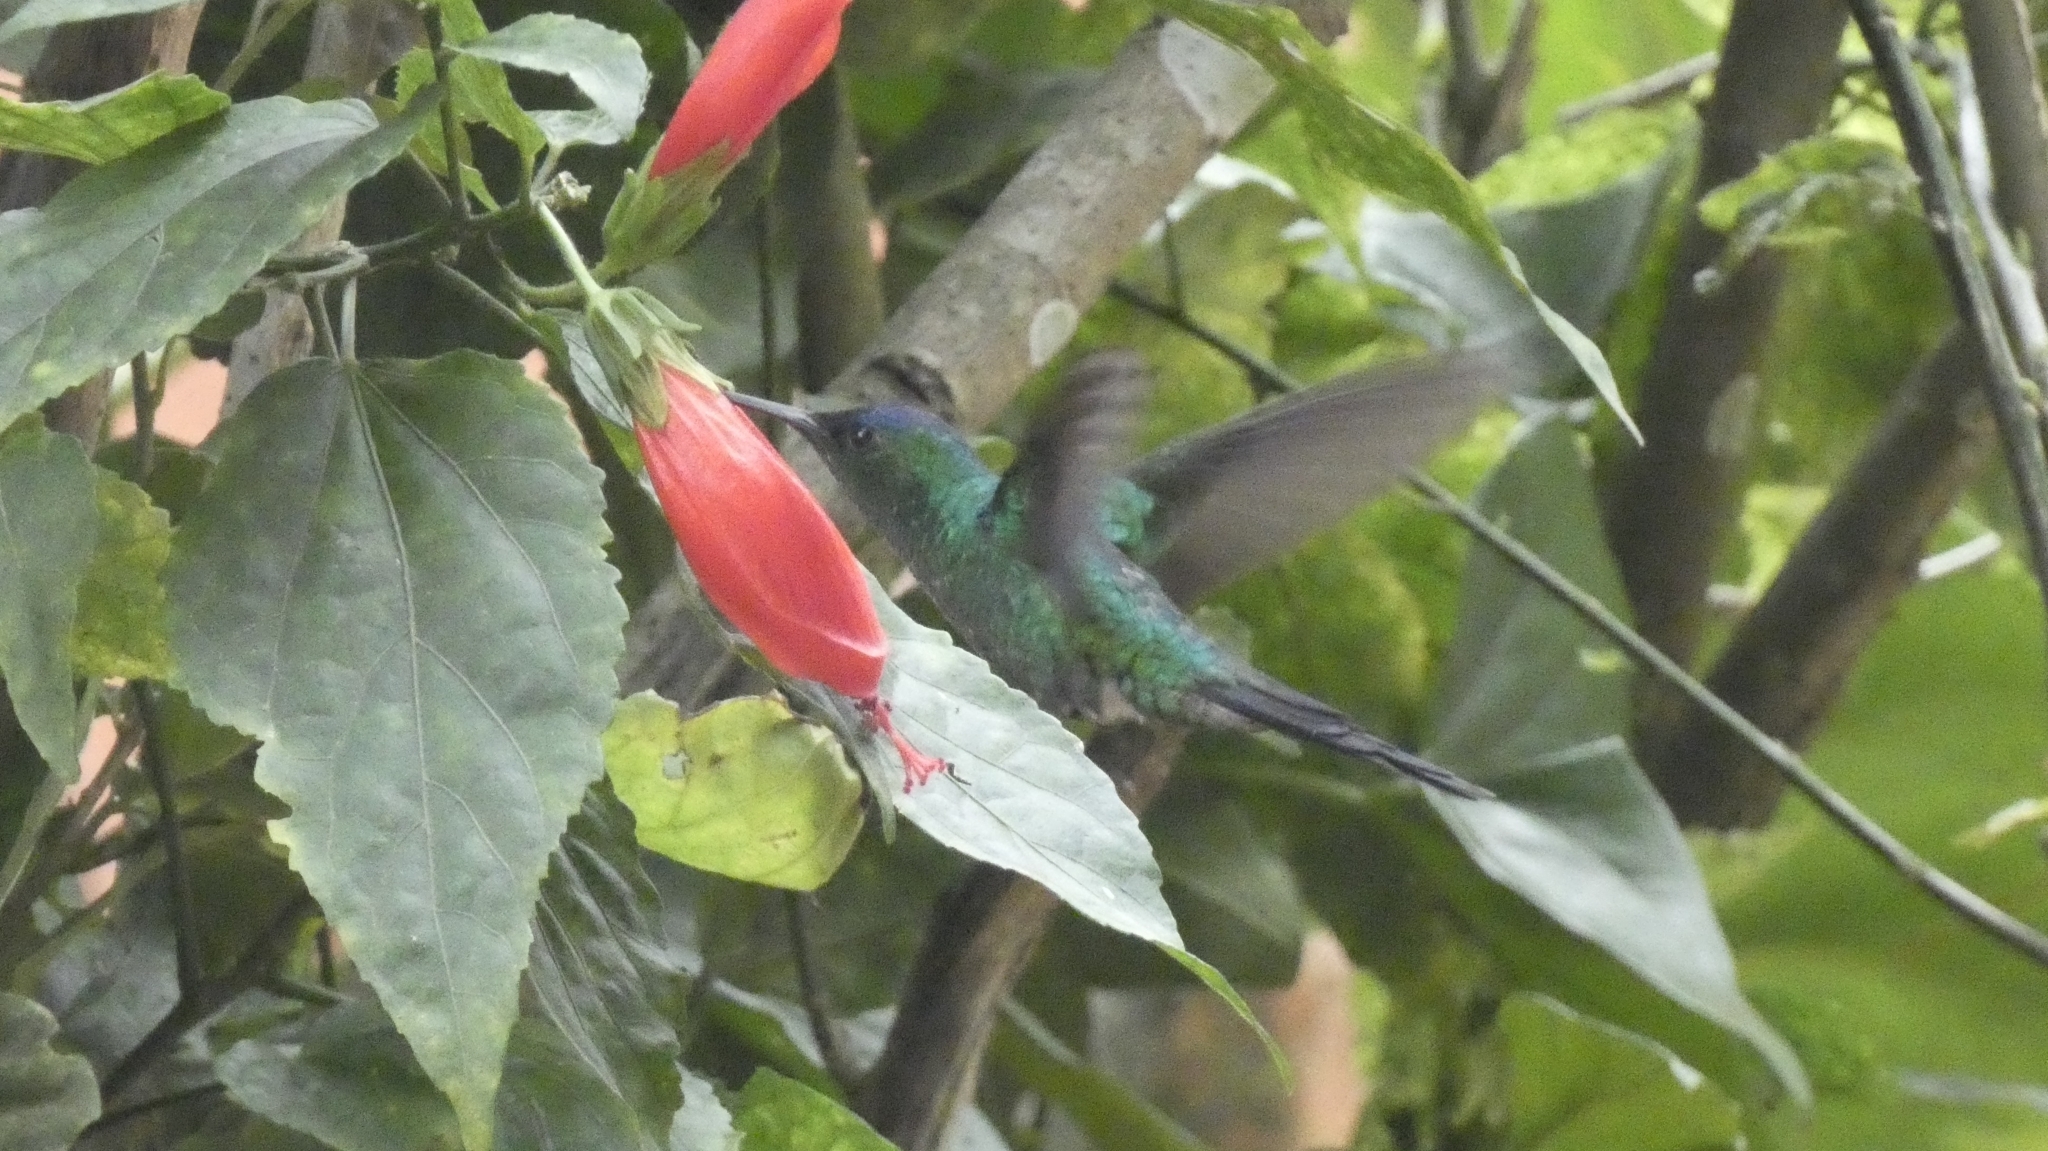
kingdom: Animalia
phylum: Chordata
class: Aves
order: Apodiformes
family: Trochilidae
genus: Thalurania
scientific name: Thalurania glaucopis
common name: Violet-capped woodnymph
